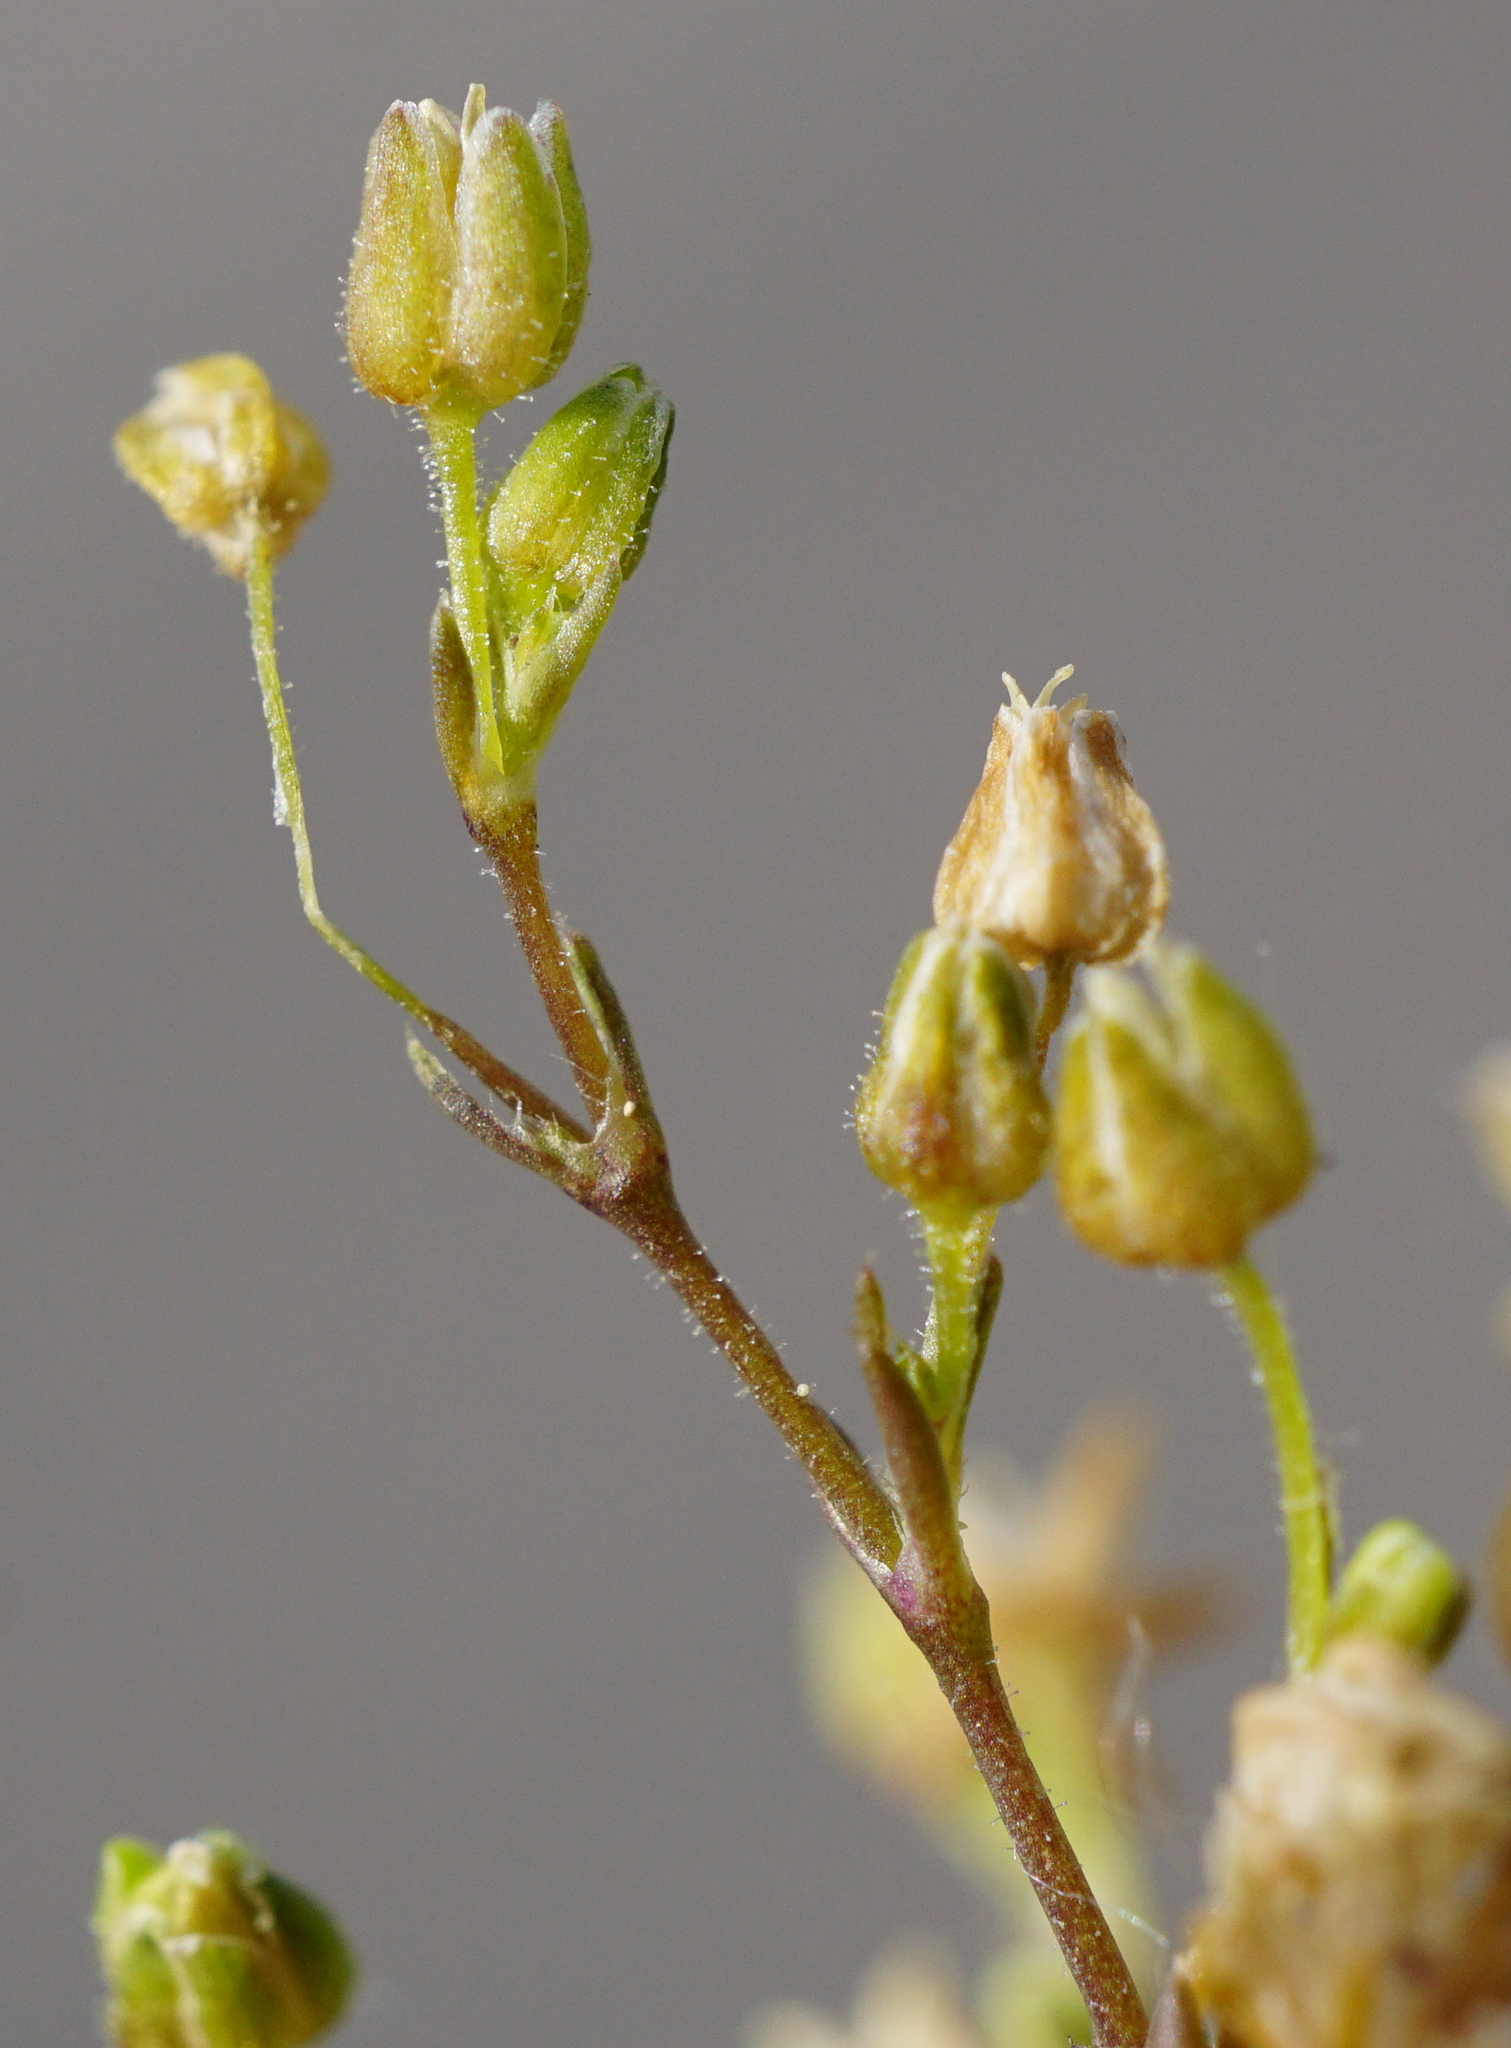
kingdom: Plantae
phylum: Tracheophyta
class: Magnoliopsida
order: Caryophyllales
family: Caryophyllaceae
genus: Sagina
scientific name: Sagina apetala
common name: Annual pearlwort
